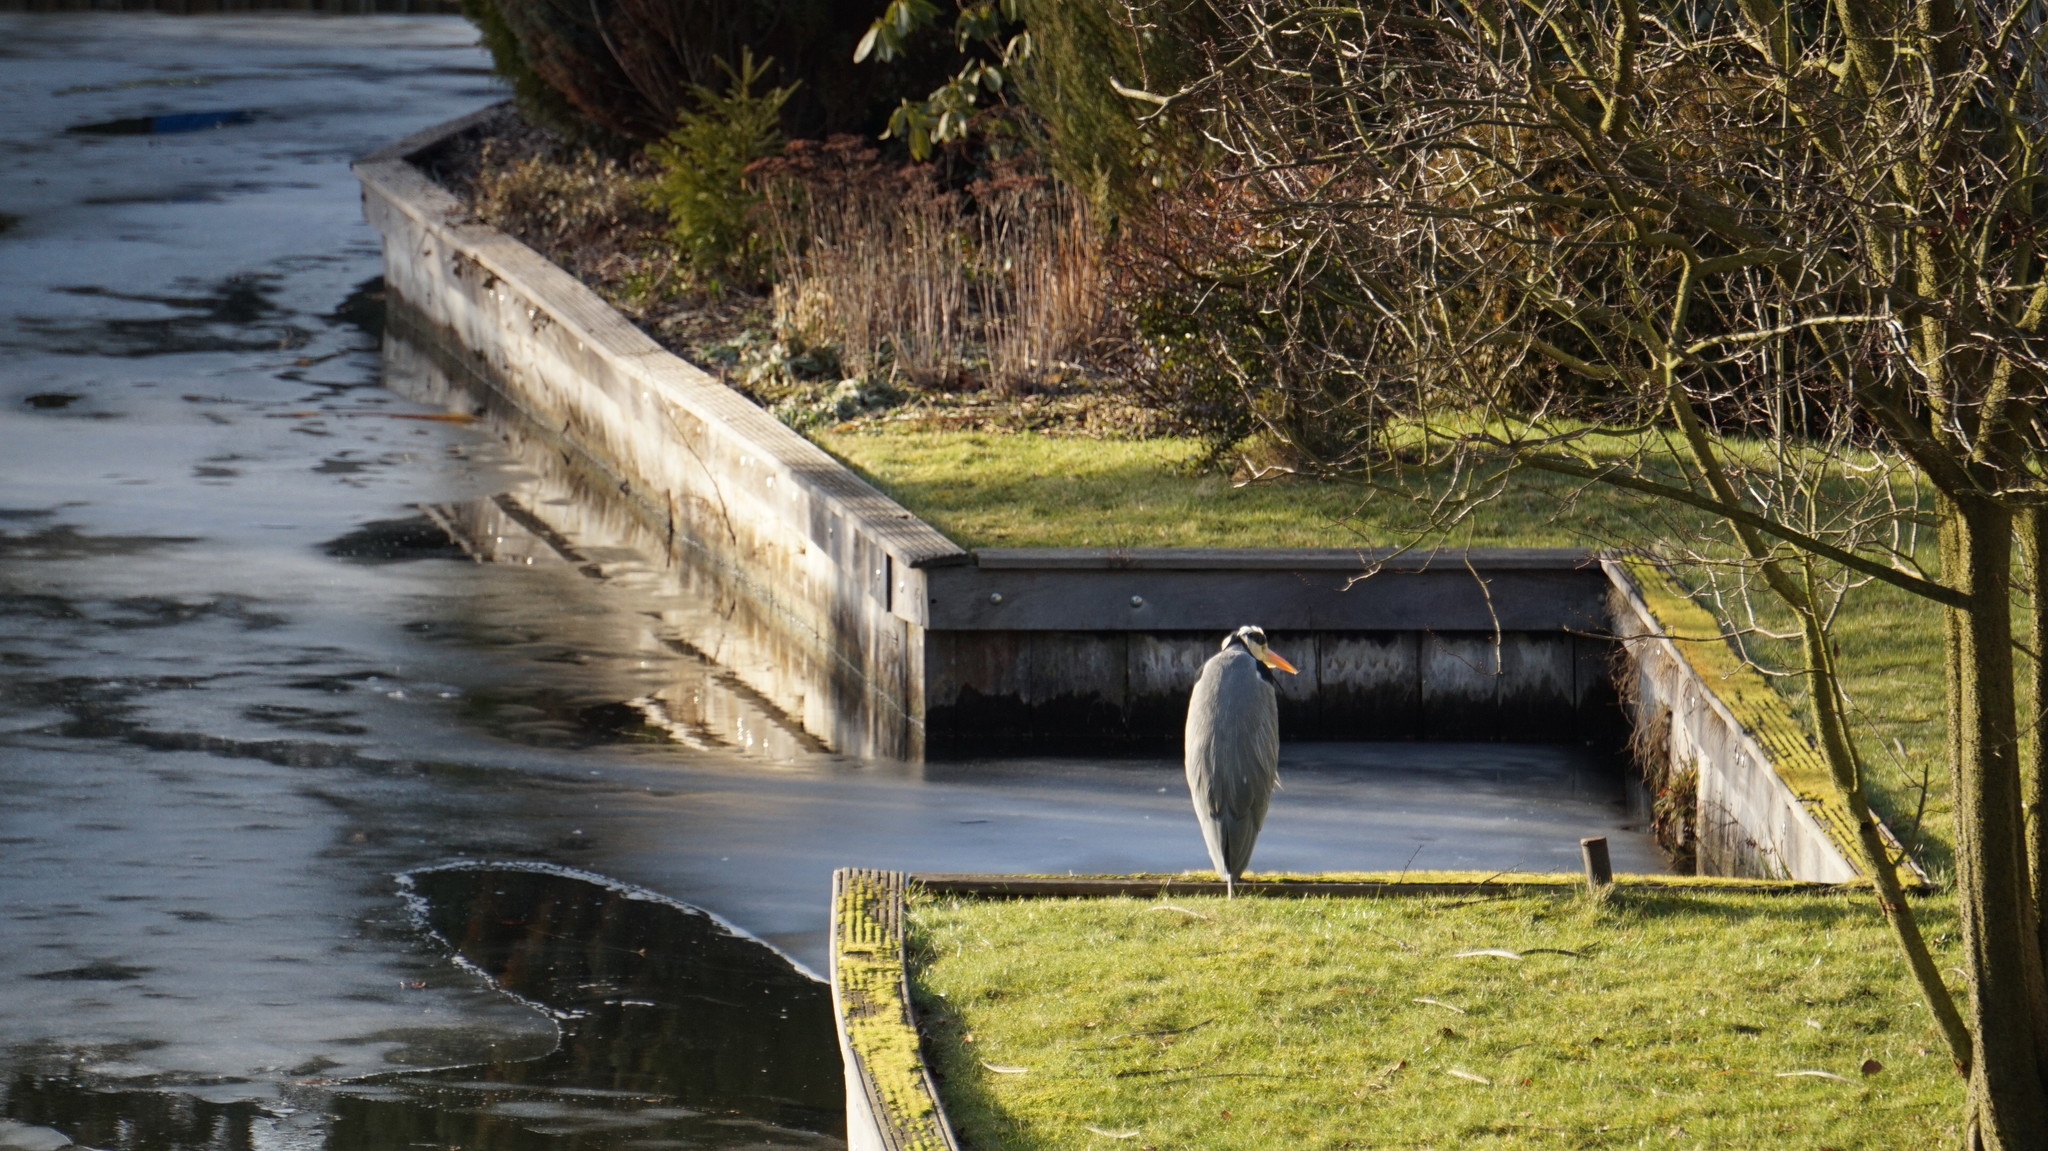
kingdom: Animalia
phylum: Chordata
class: Aves
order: Pelecaniformes
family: Ardeidae
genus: Ardea
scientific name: Ardea cinerea
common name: Grey heron
